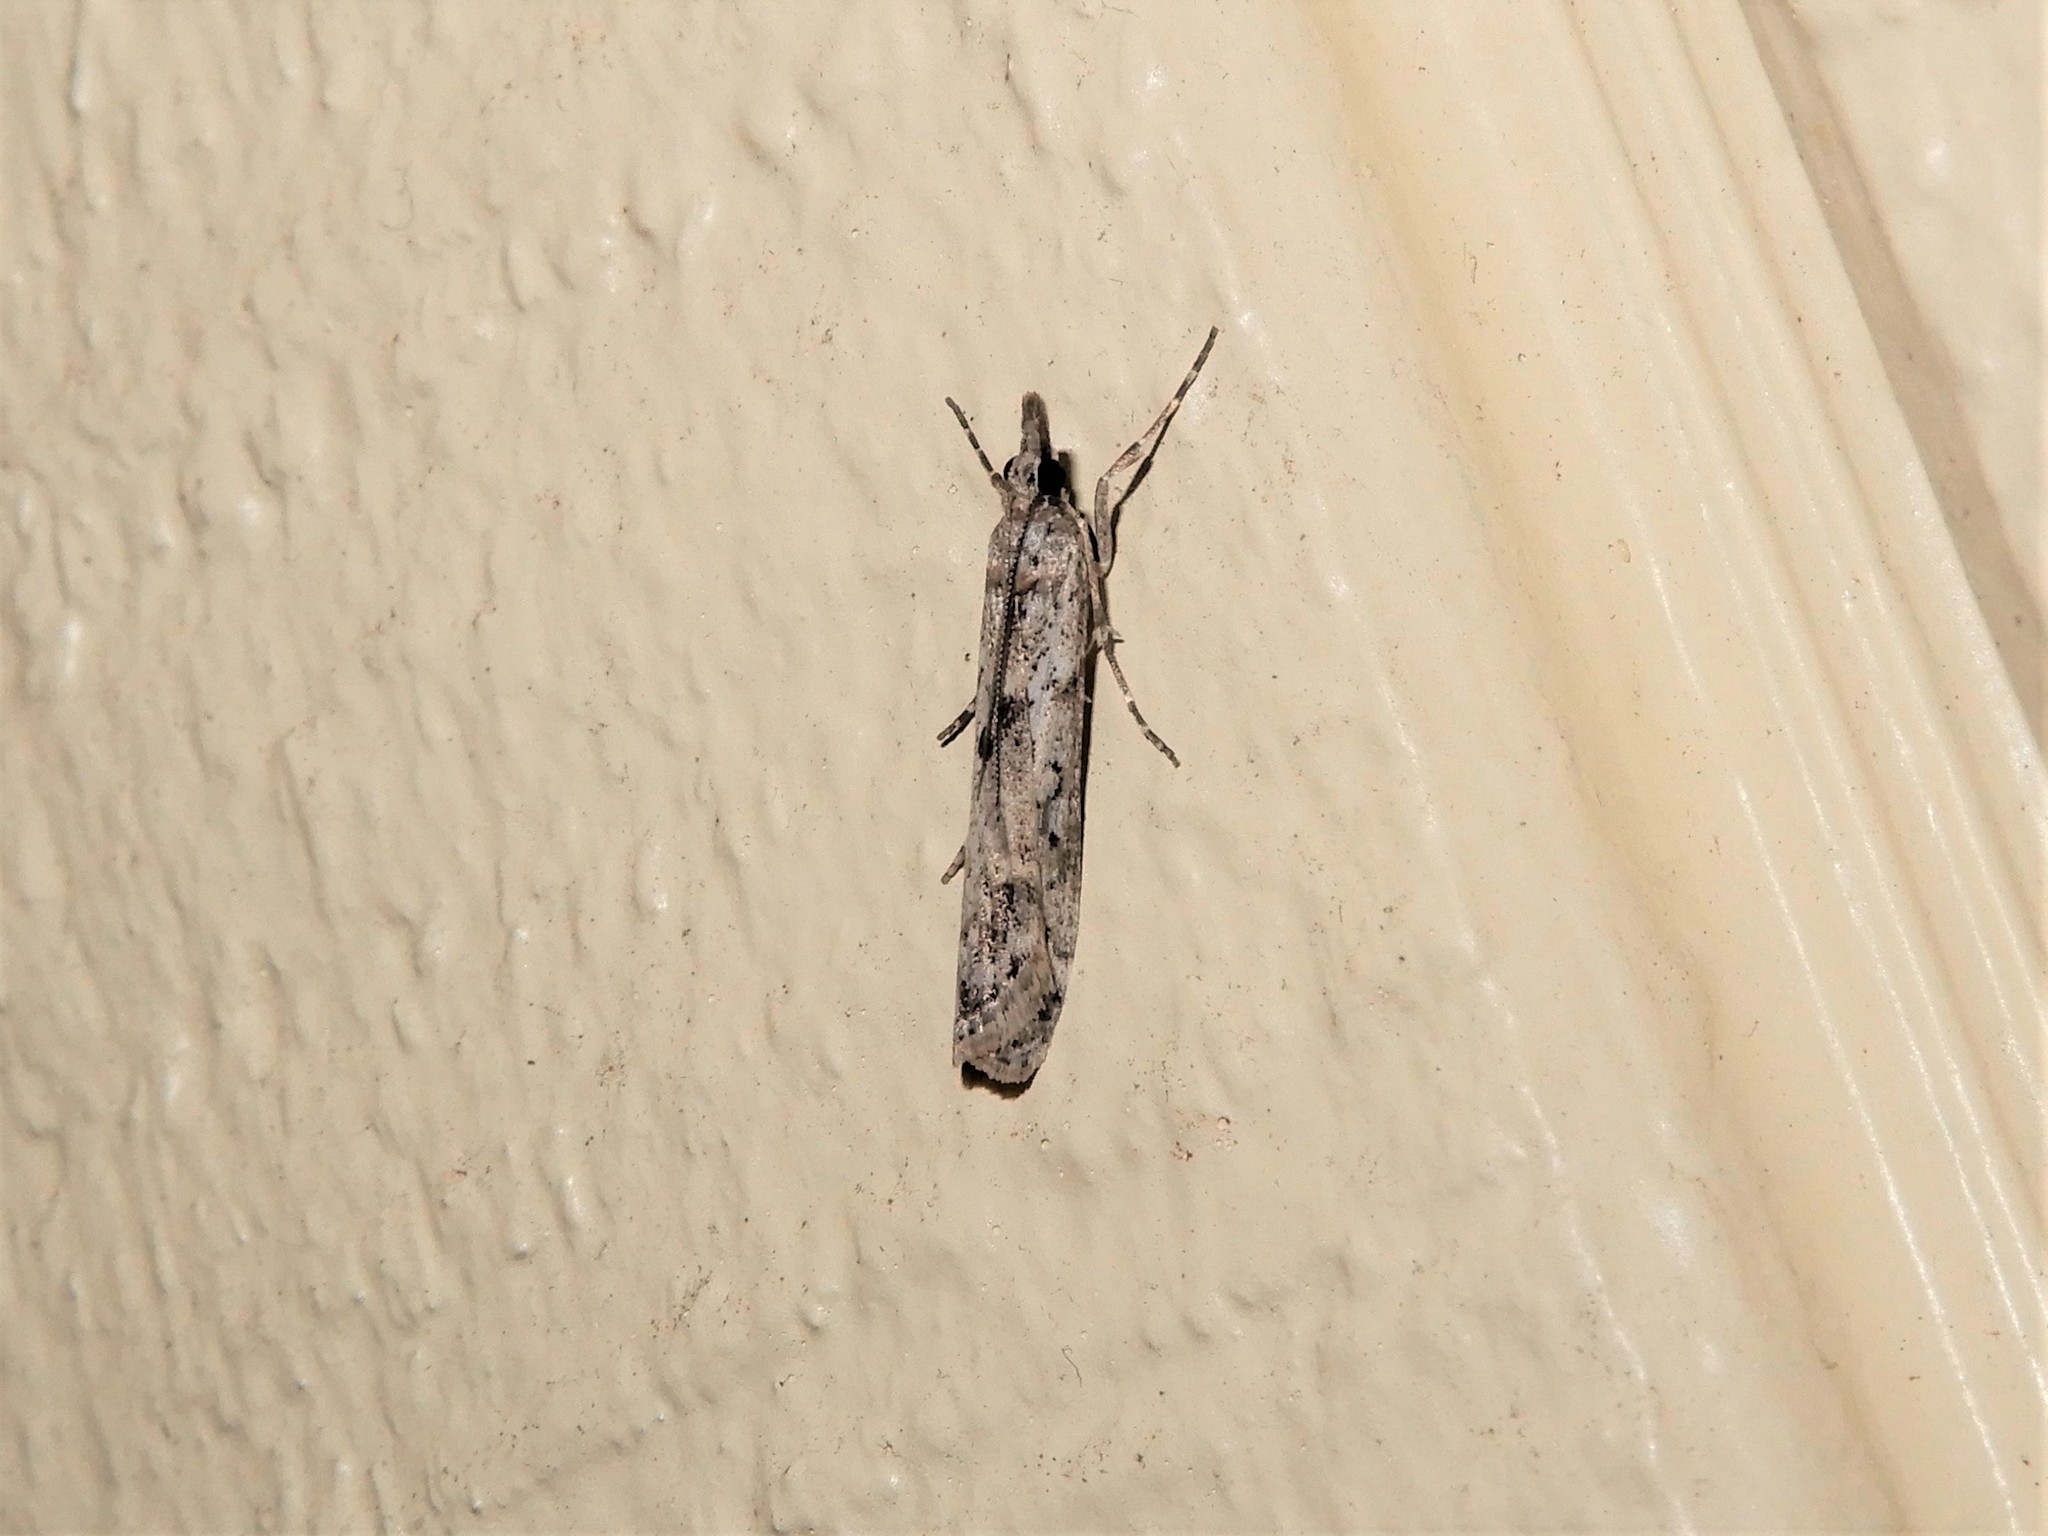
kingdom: Animalia
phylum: Arthropoda
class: Insecta
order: Lepidoptera
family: Crambidae
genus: Eudonia
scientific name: Eudonia leptalea
